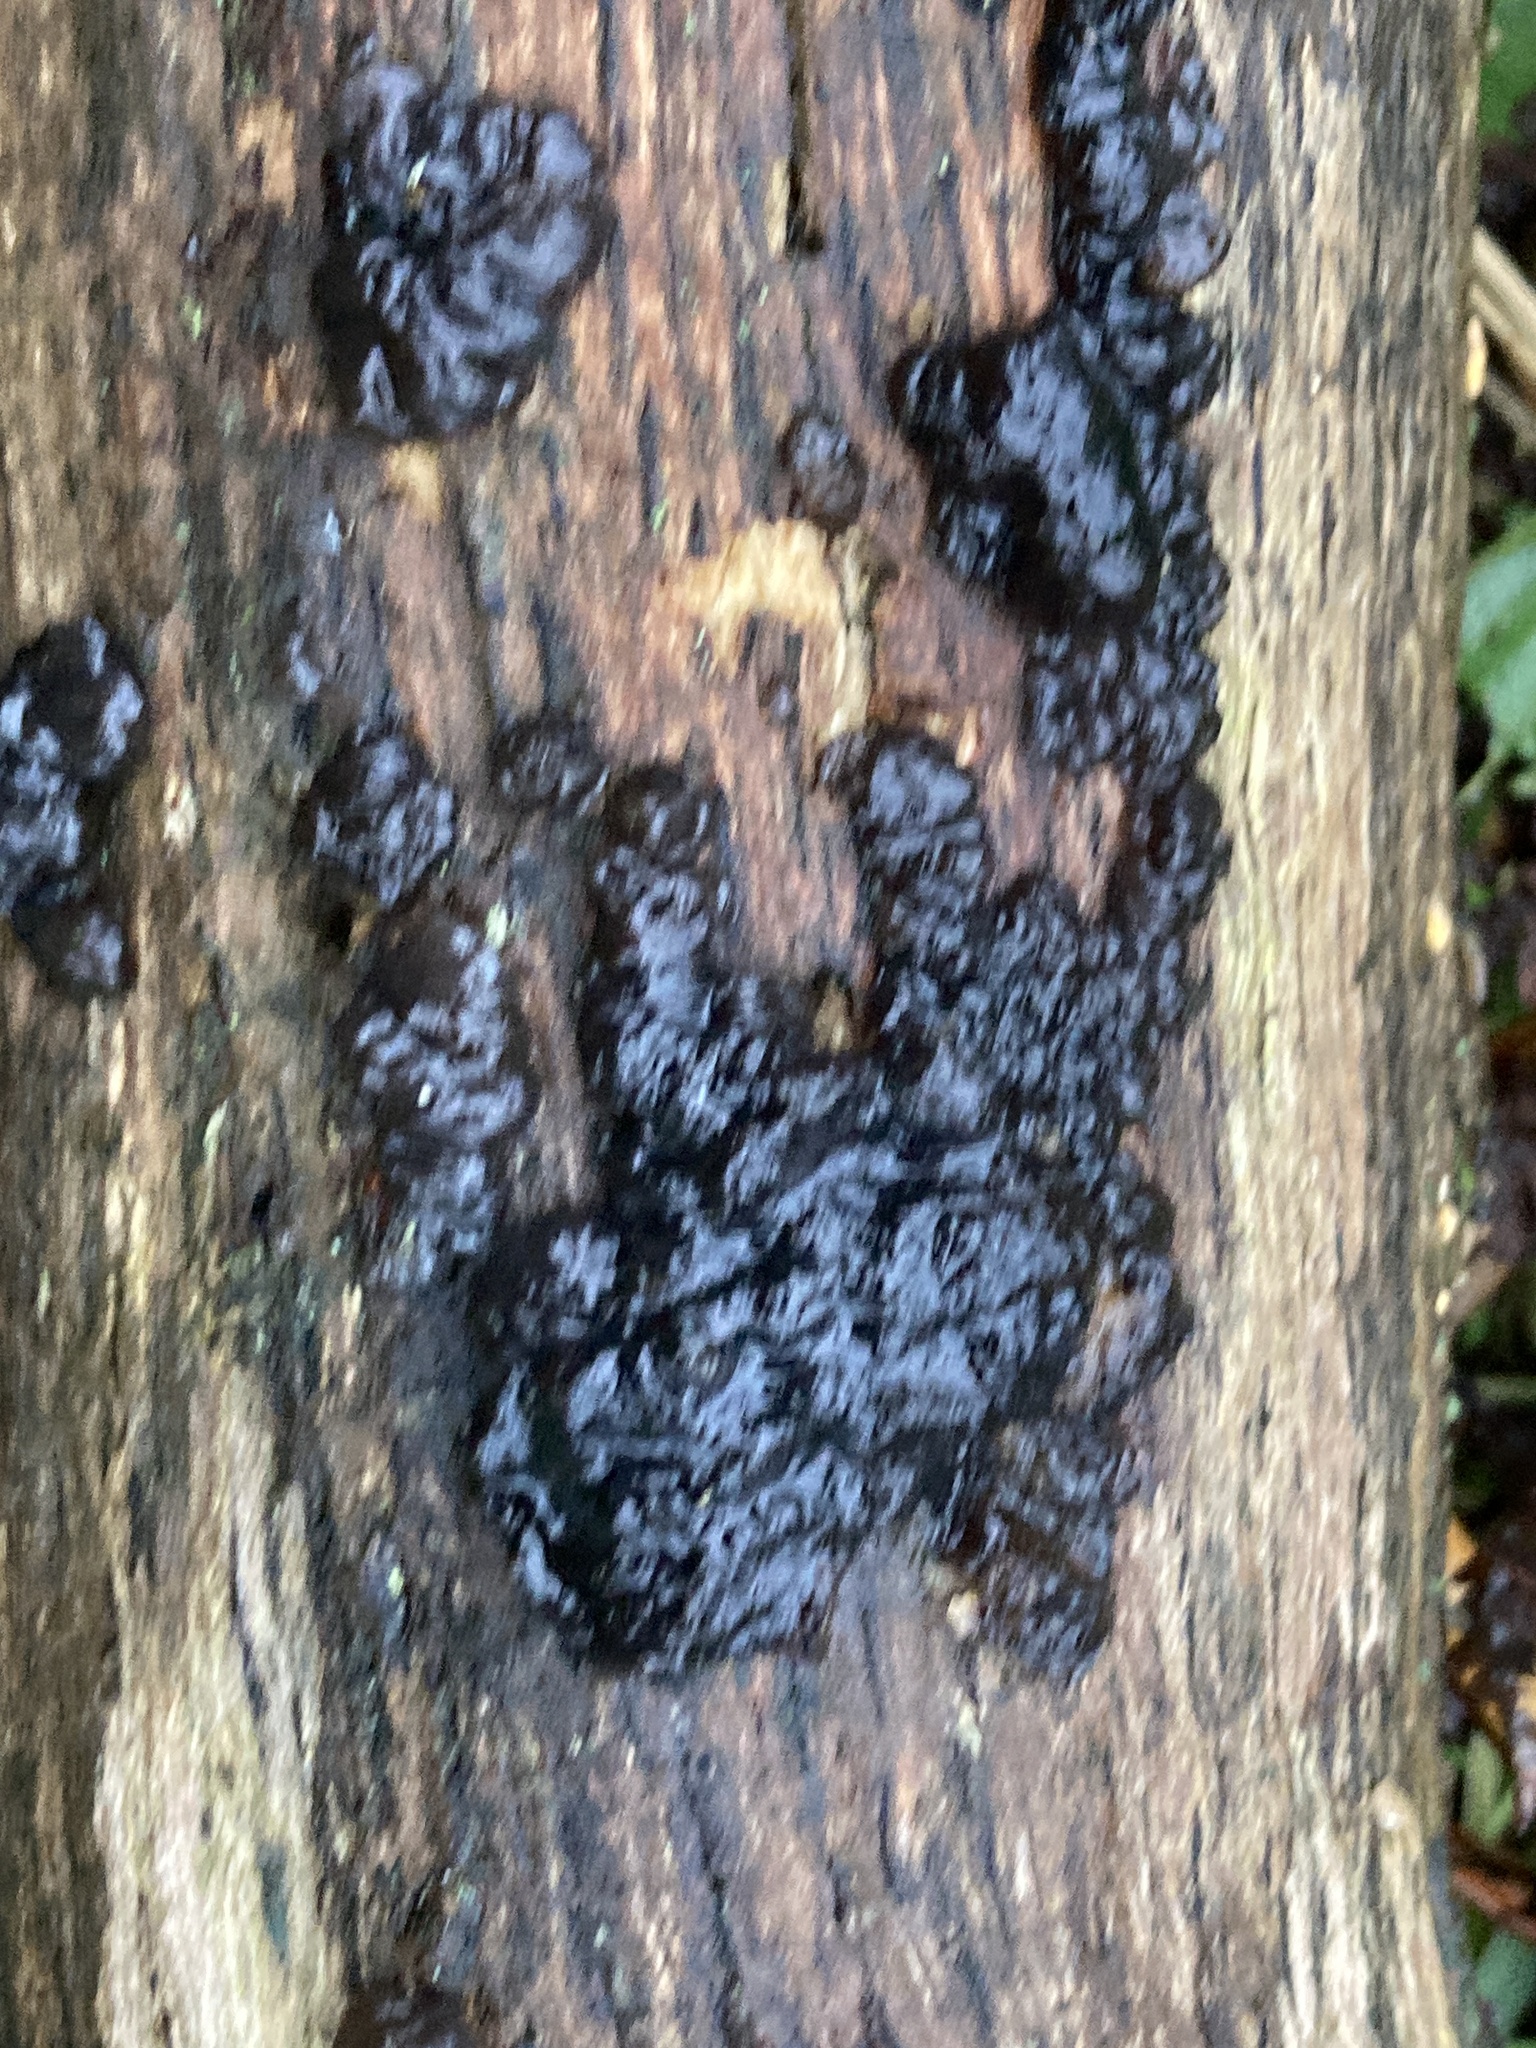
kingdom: Fungi
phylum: Basidiomycota
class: Agaricomycetes
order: Auriculariales
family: Auriculariaceae
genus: Exidia
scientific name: Exidia glandulosa
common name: Witches' butter
